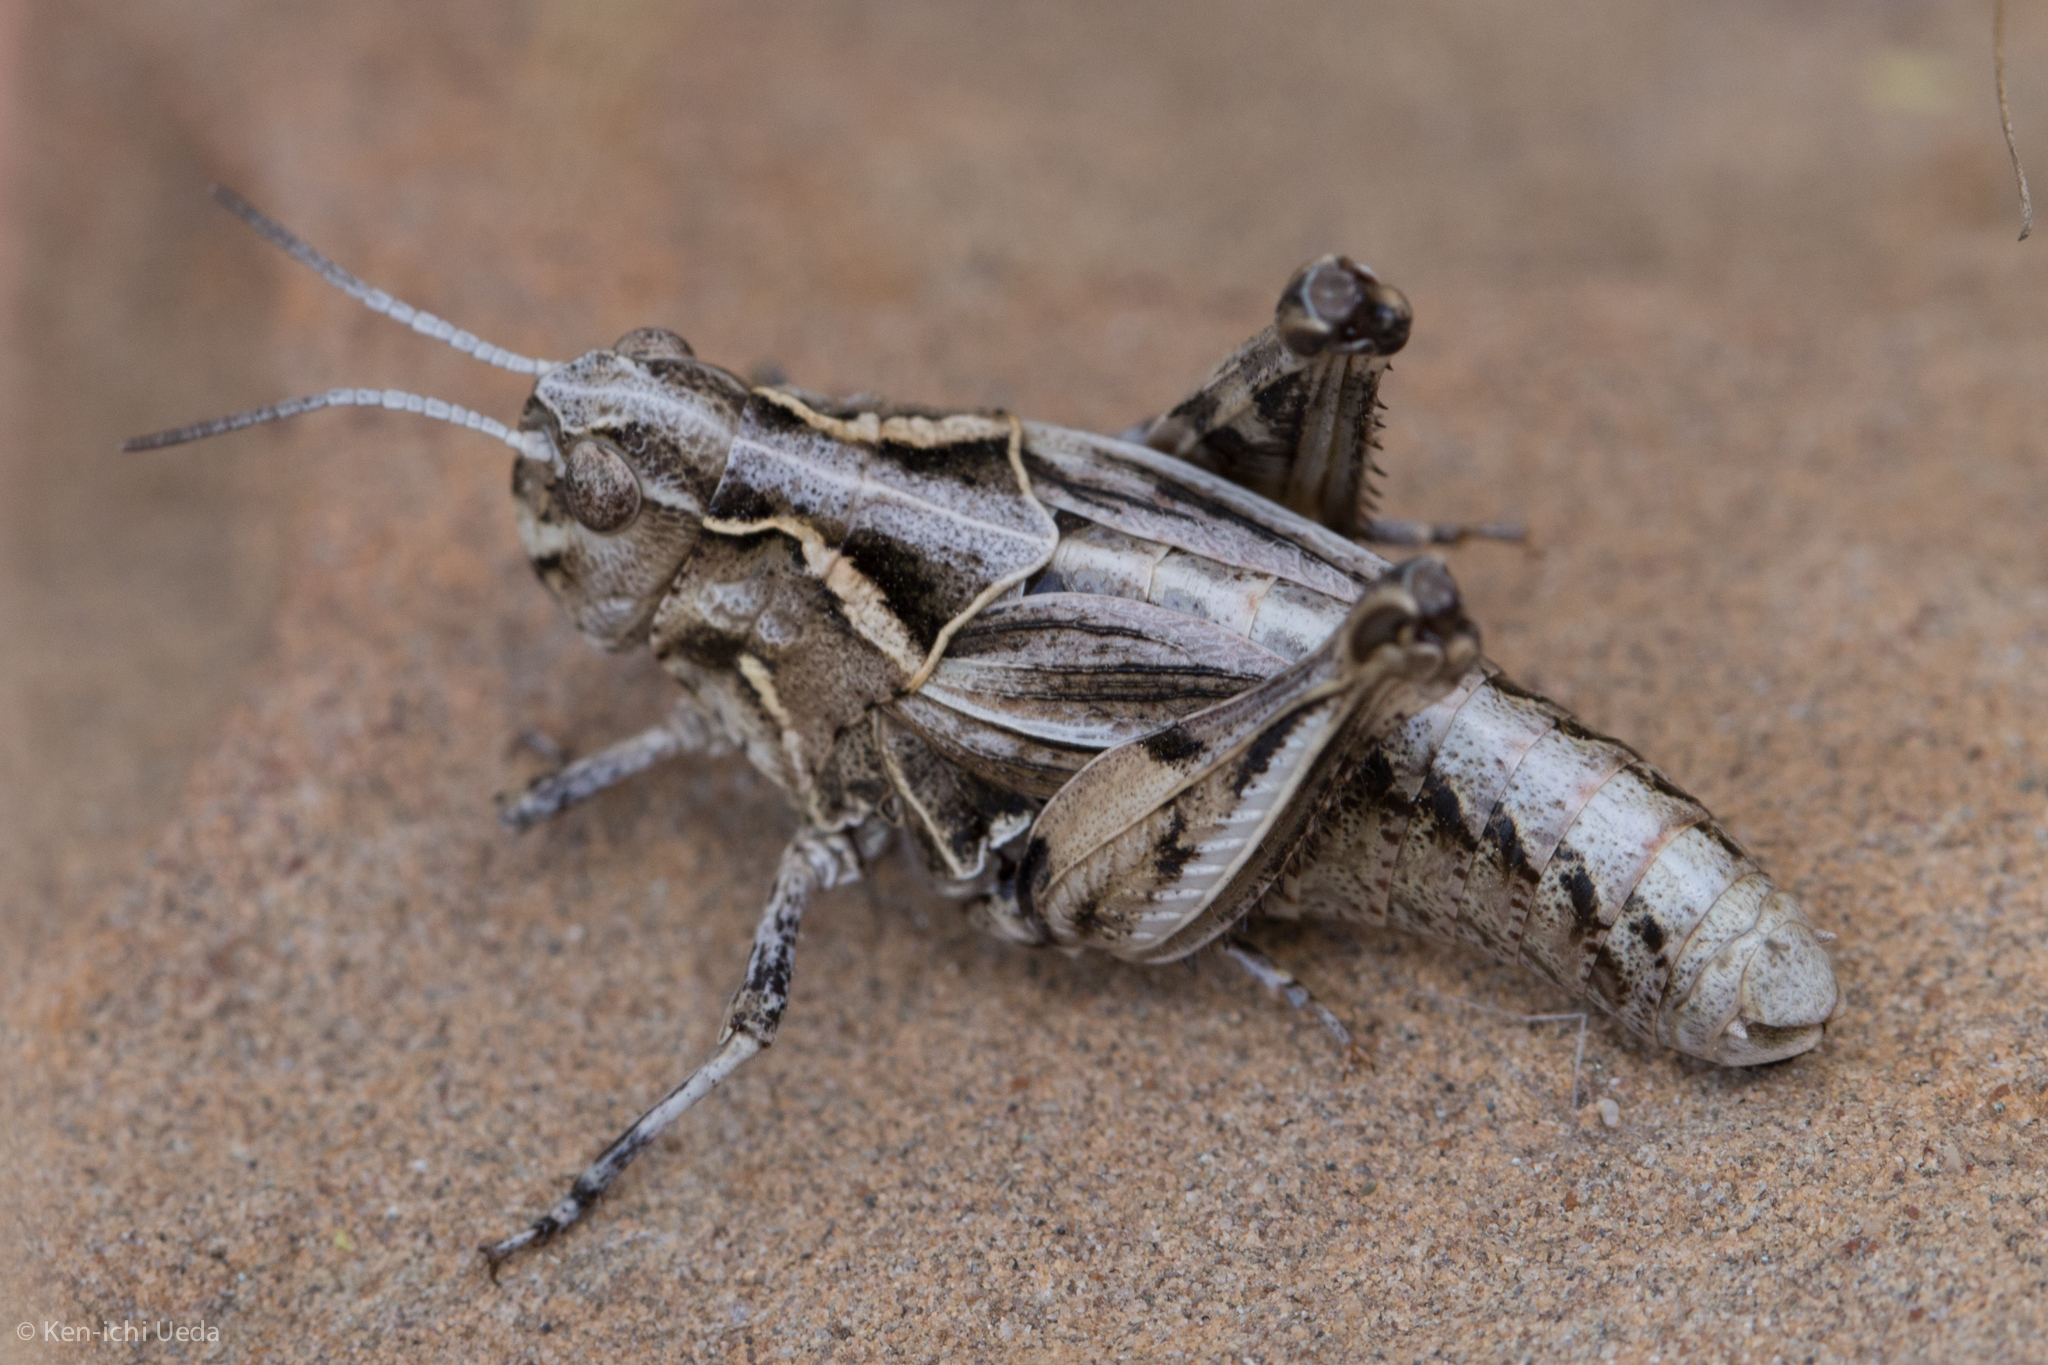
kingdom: Animalia
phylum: Arthropoda
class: Insecta
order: Orthoptera
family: Acrididae
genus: Esselenia
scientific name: Esselenia vanduzeei
